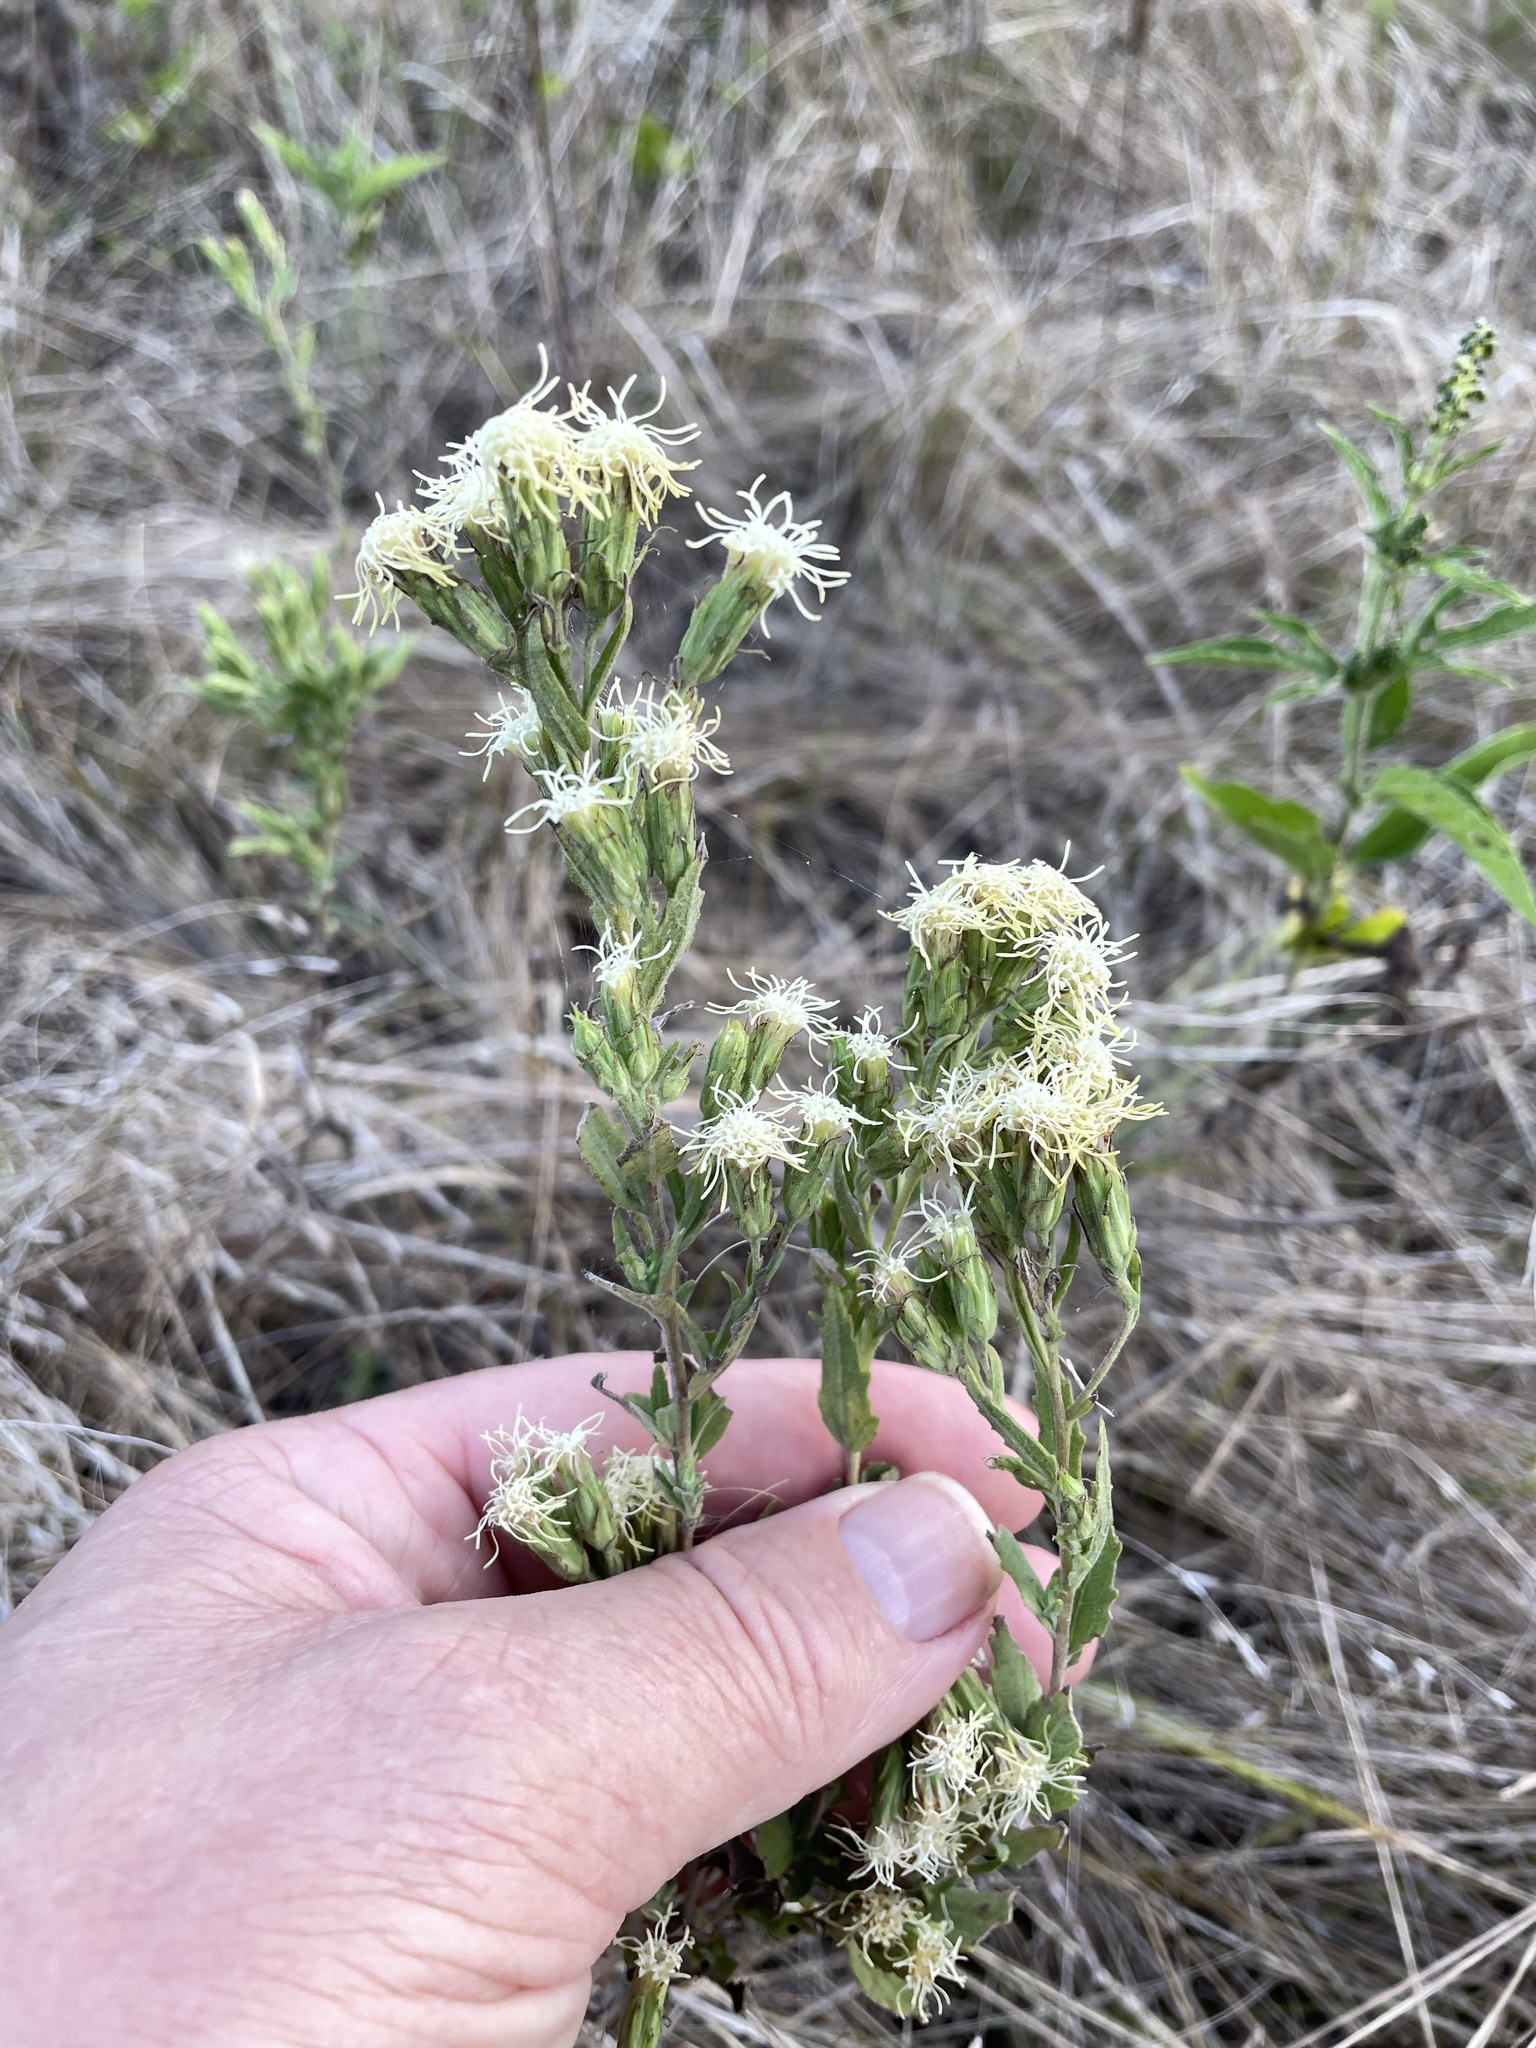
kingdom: Plantae
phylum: Tracheophyta
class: Magnoliopsida
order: Asterales
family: Asteraceae
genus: Brickellia
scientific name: Brickellia eupatorioides
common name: False boneset
